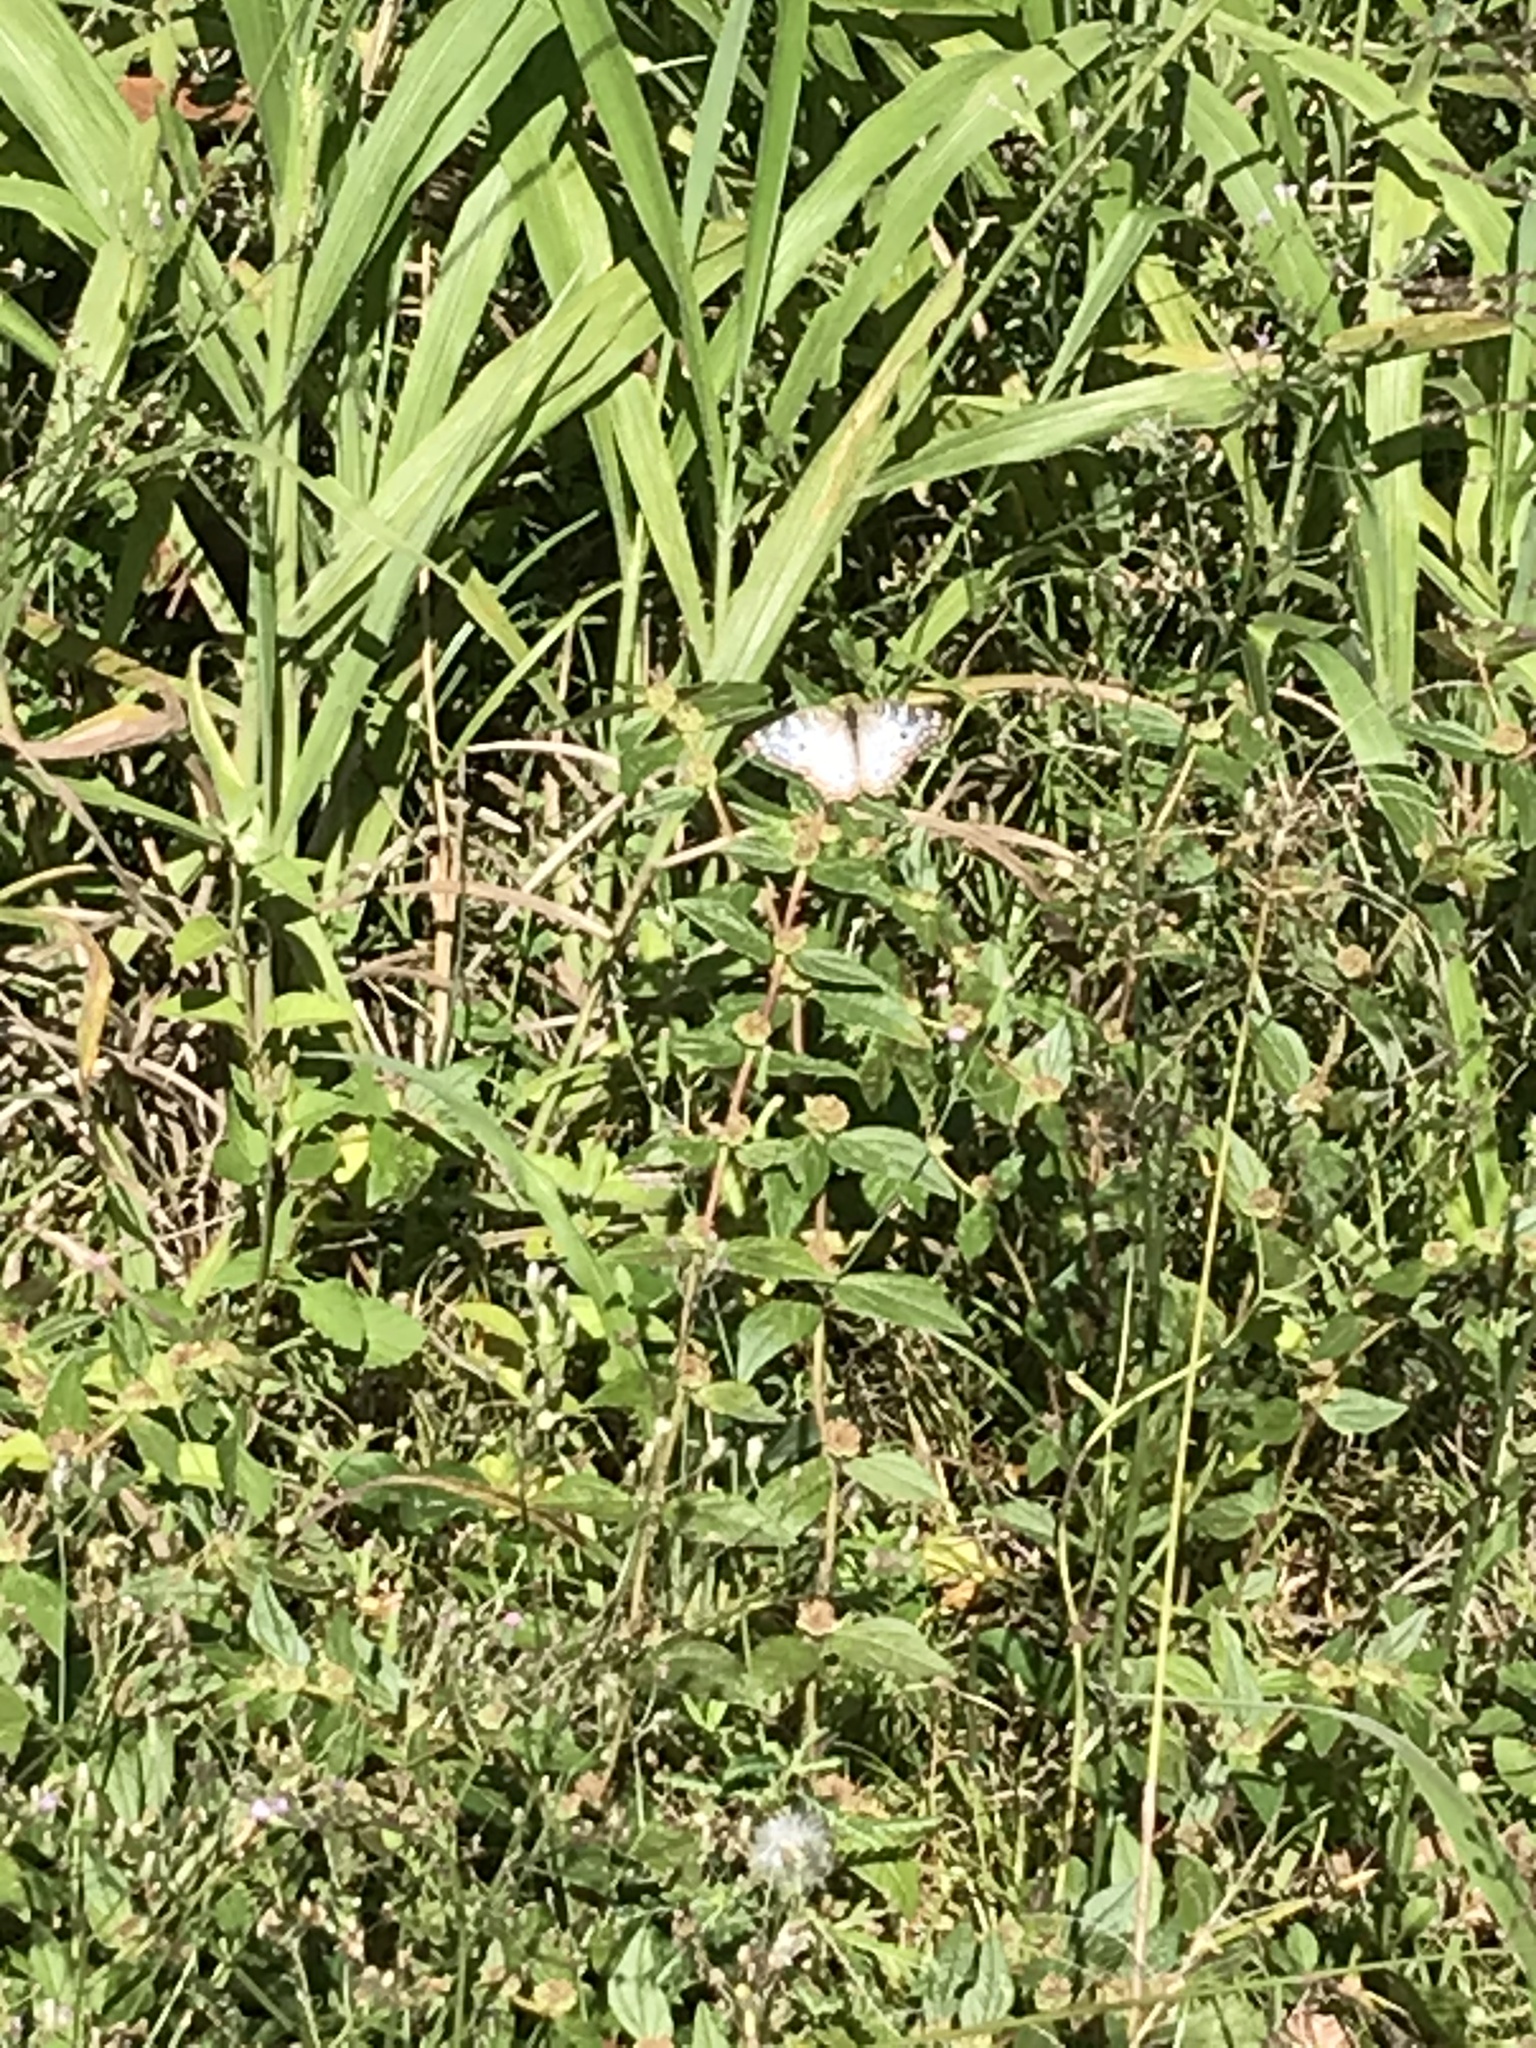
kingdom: Animalia
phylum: Arthropoda
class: Insecta
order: Lepidoptera
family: Nymphalidae
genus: Anartia
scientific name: Anartia jatrophae
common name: White peacock
